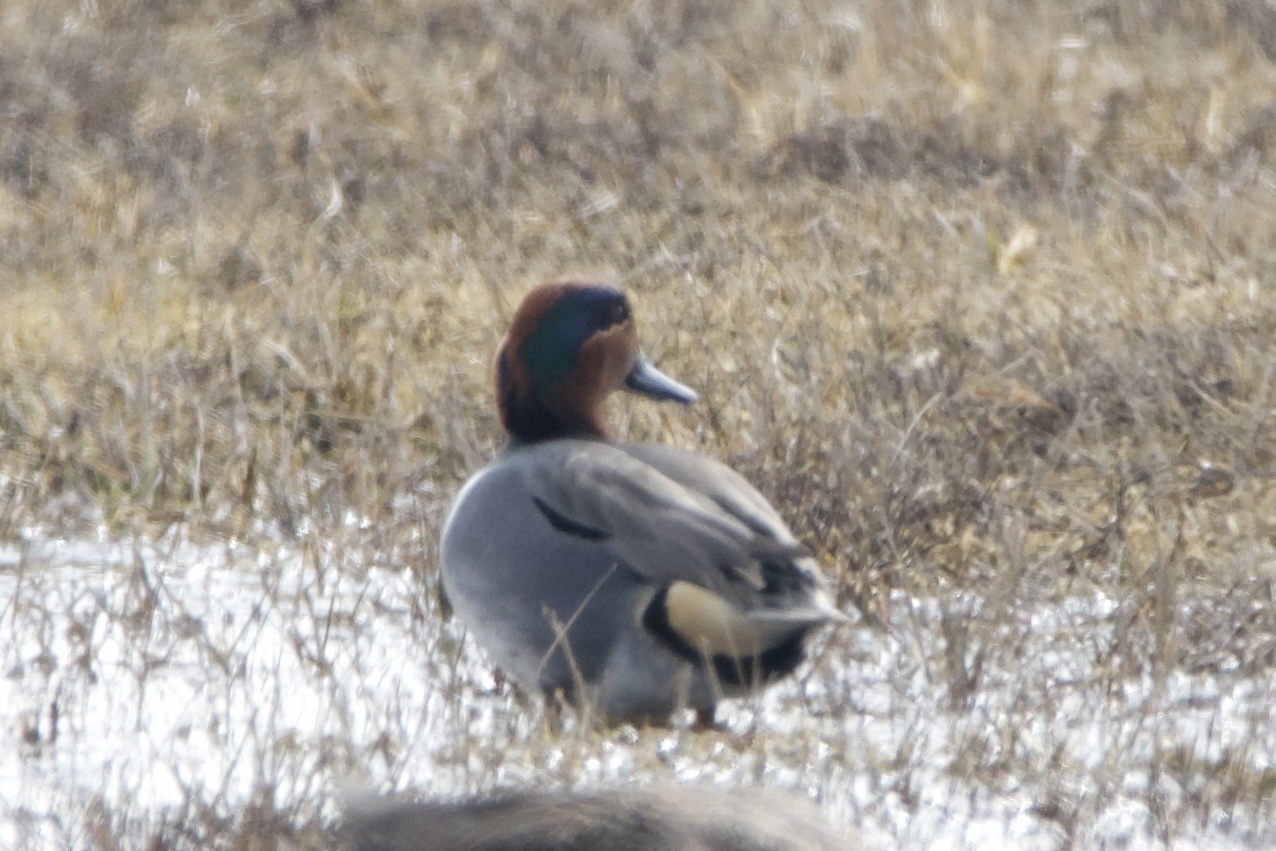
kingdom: Animalia
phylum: Chordata
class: Aves
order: Anseriformes
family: Anatidae
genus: Anas
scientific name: Anas crecca
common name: Eurasian teal
